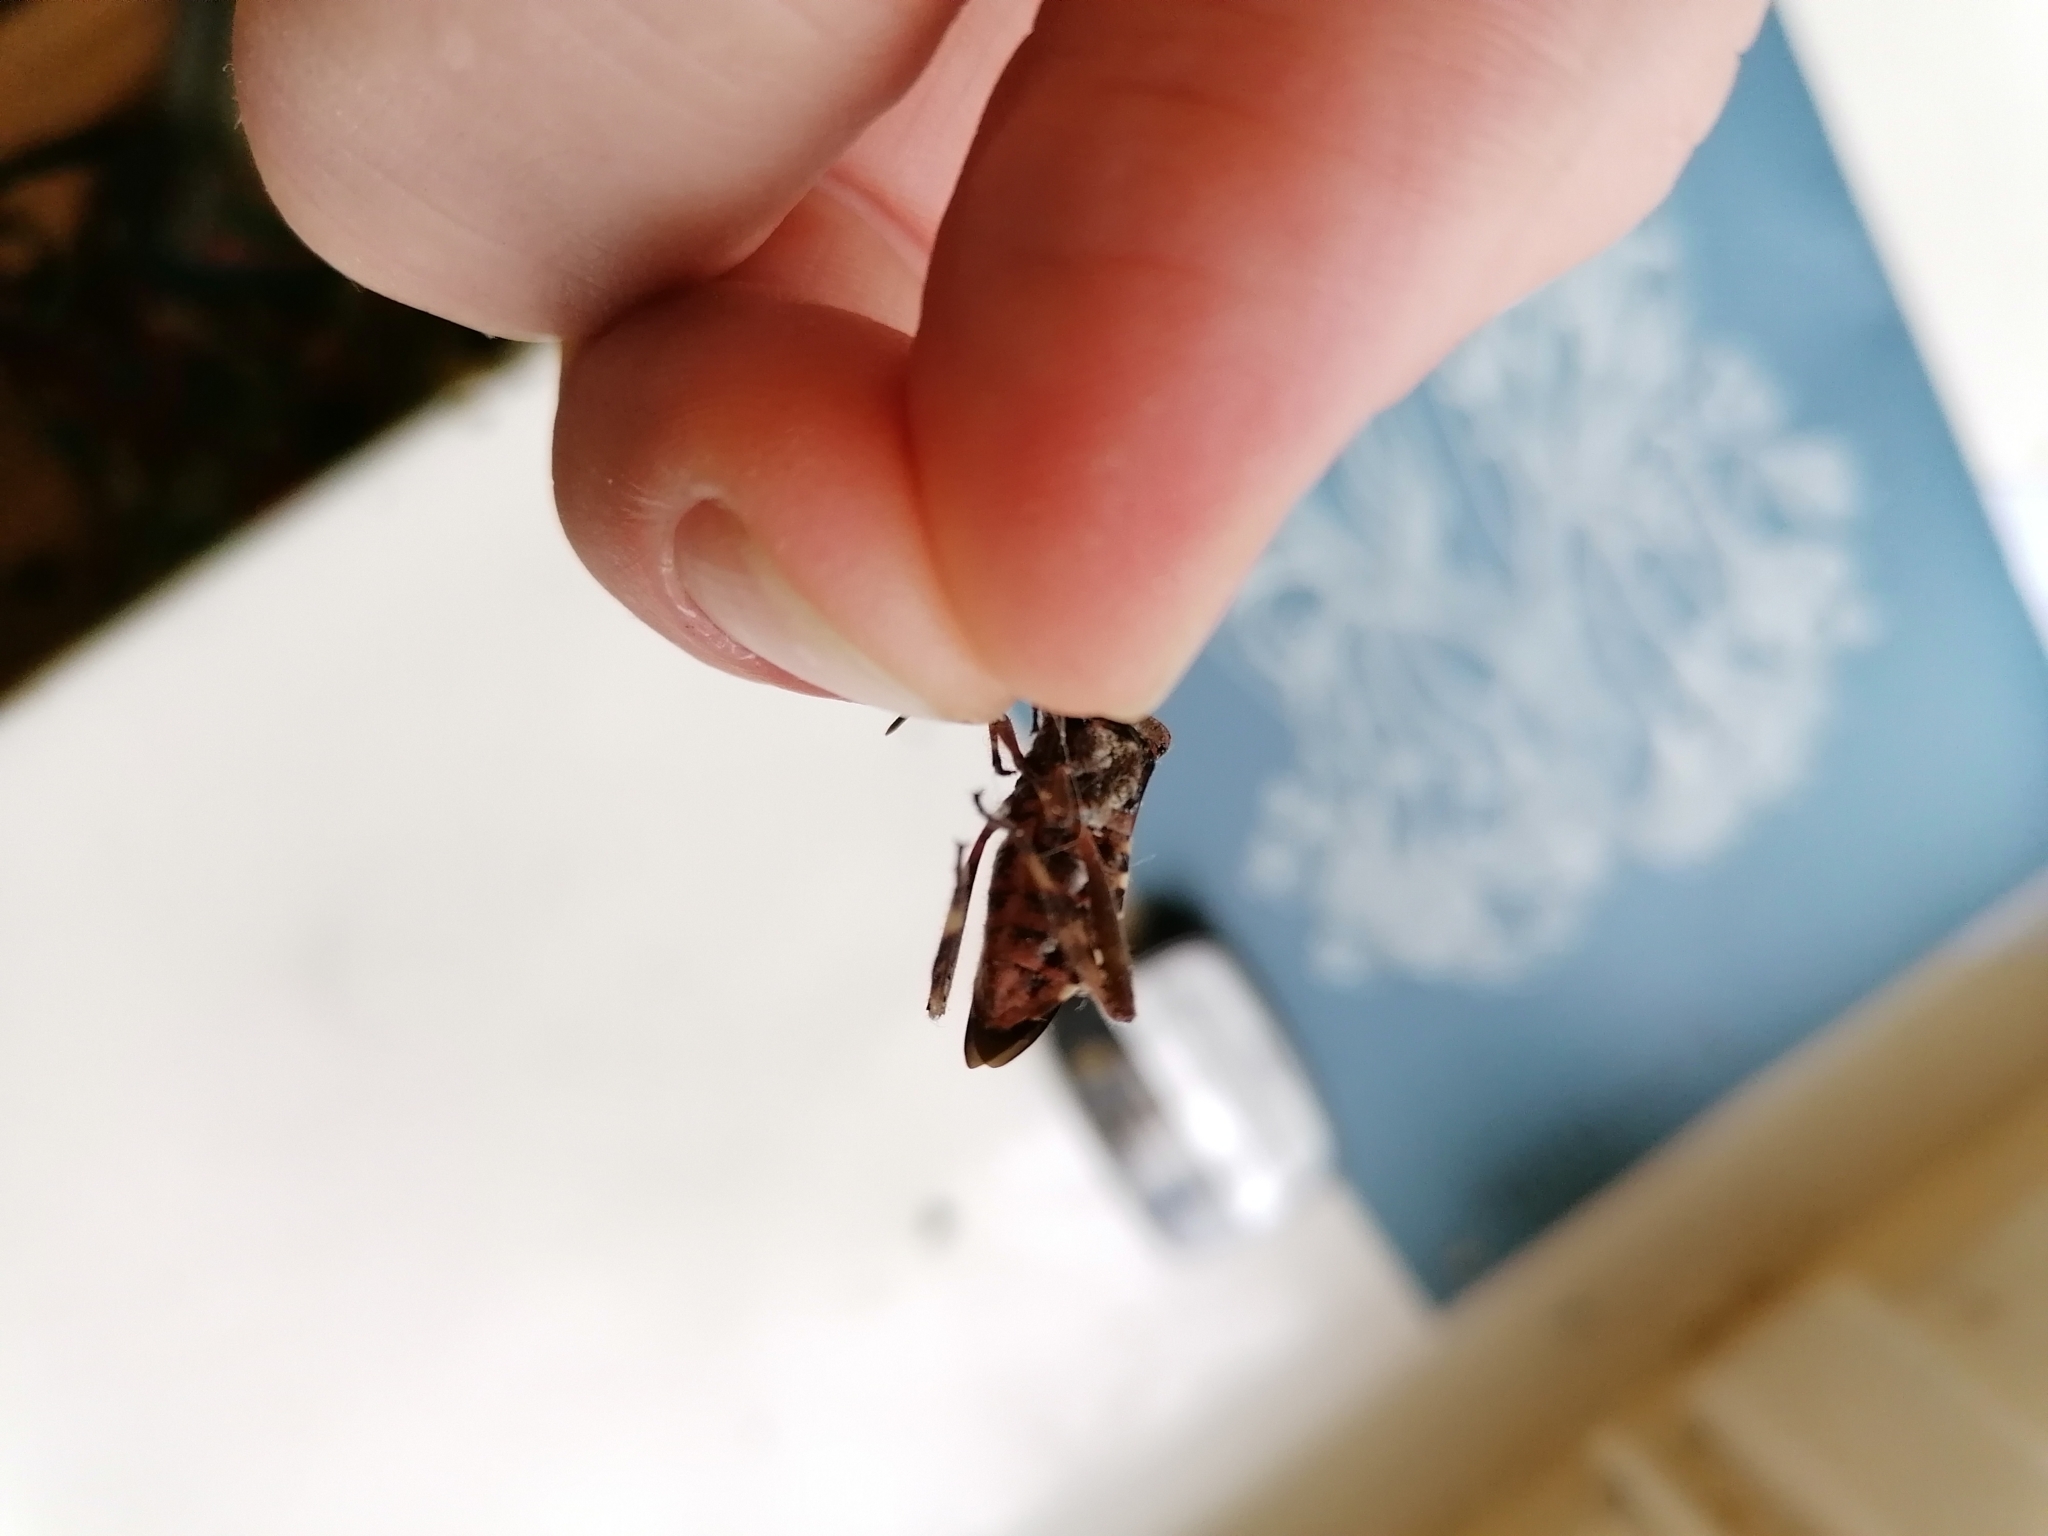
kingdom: Animalia
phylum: Arthropoda
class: Insecta
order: Hemiptera
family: Coreidae
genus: Leptoglossus
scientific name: Leptoglossus occidentalis
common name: Western conifer-seed bug
